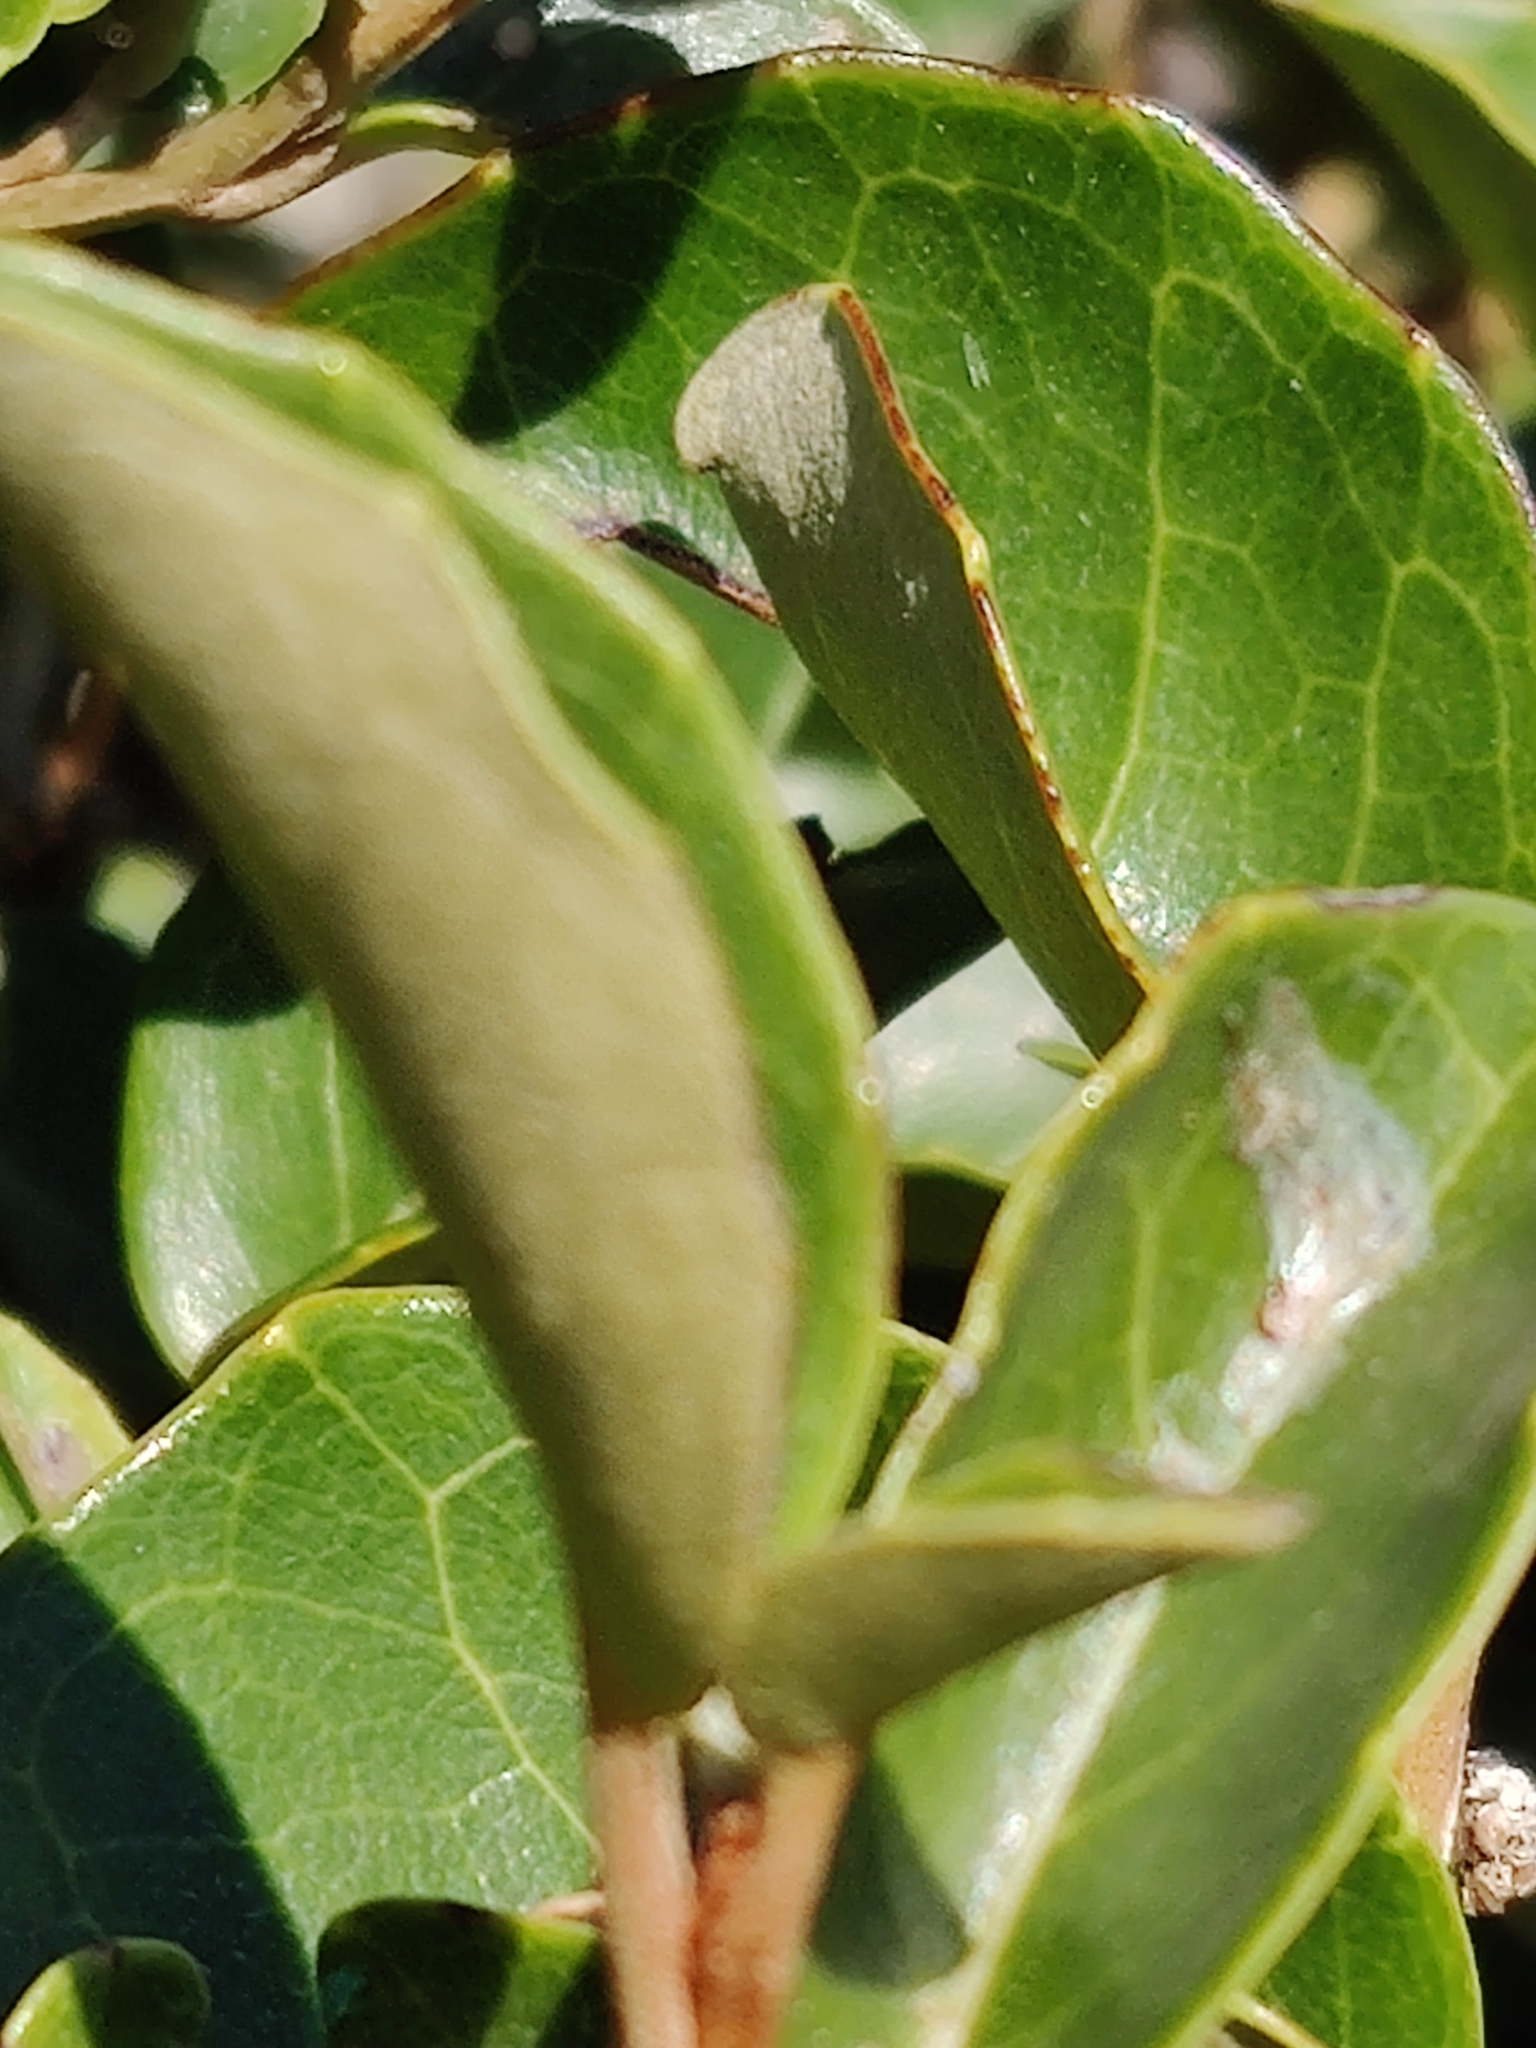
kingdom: Plantae
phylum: Tracheophyta
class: Magnoliopsida
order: Asterales
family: Asteraceae
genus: Olearia
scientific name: Olearia arborescens
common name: Glossy tree daisy
